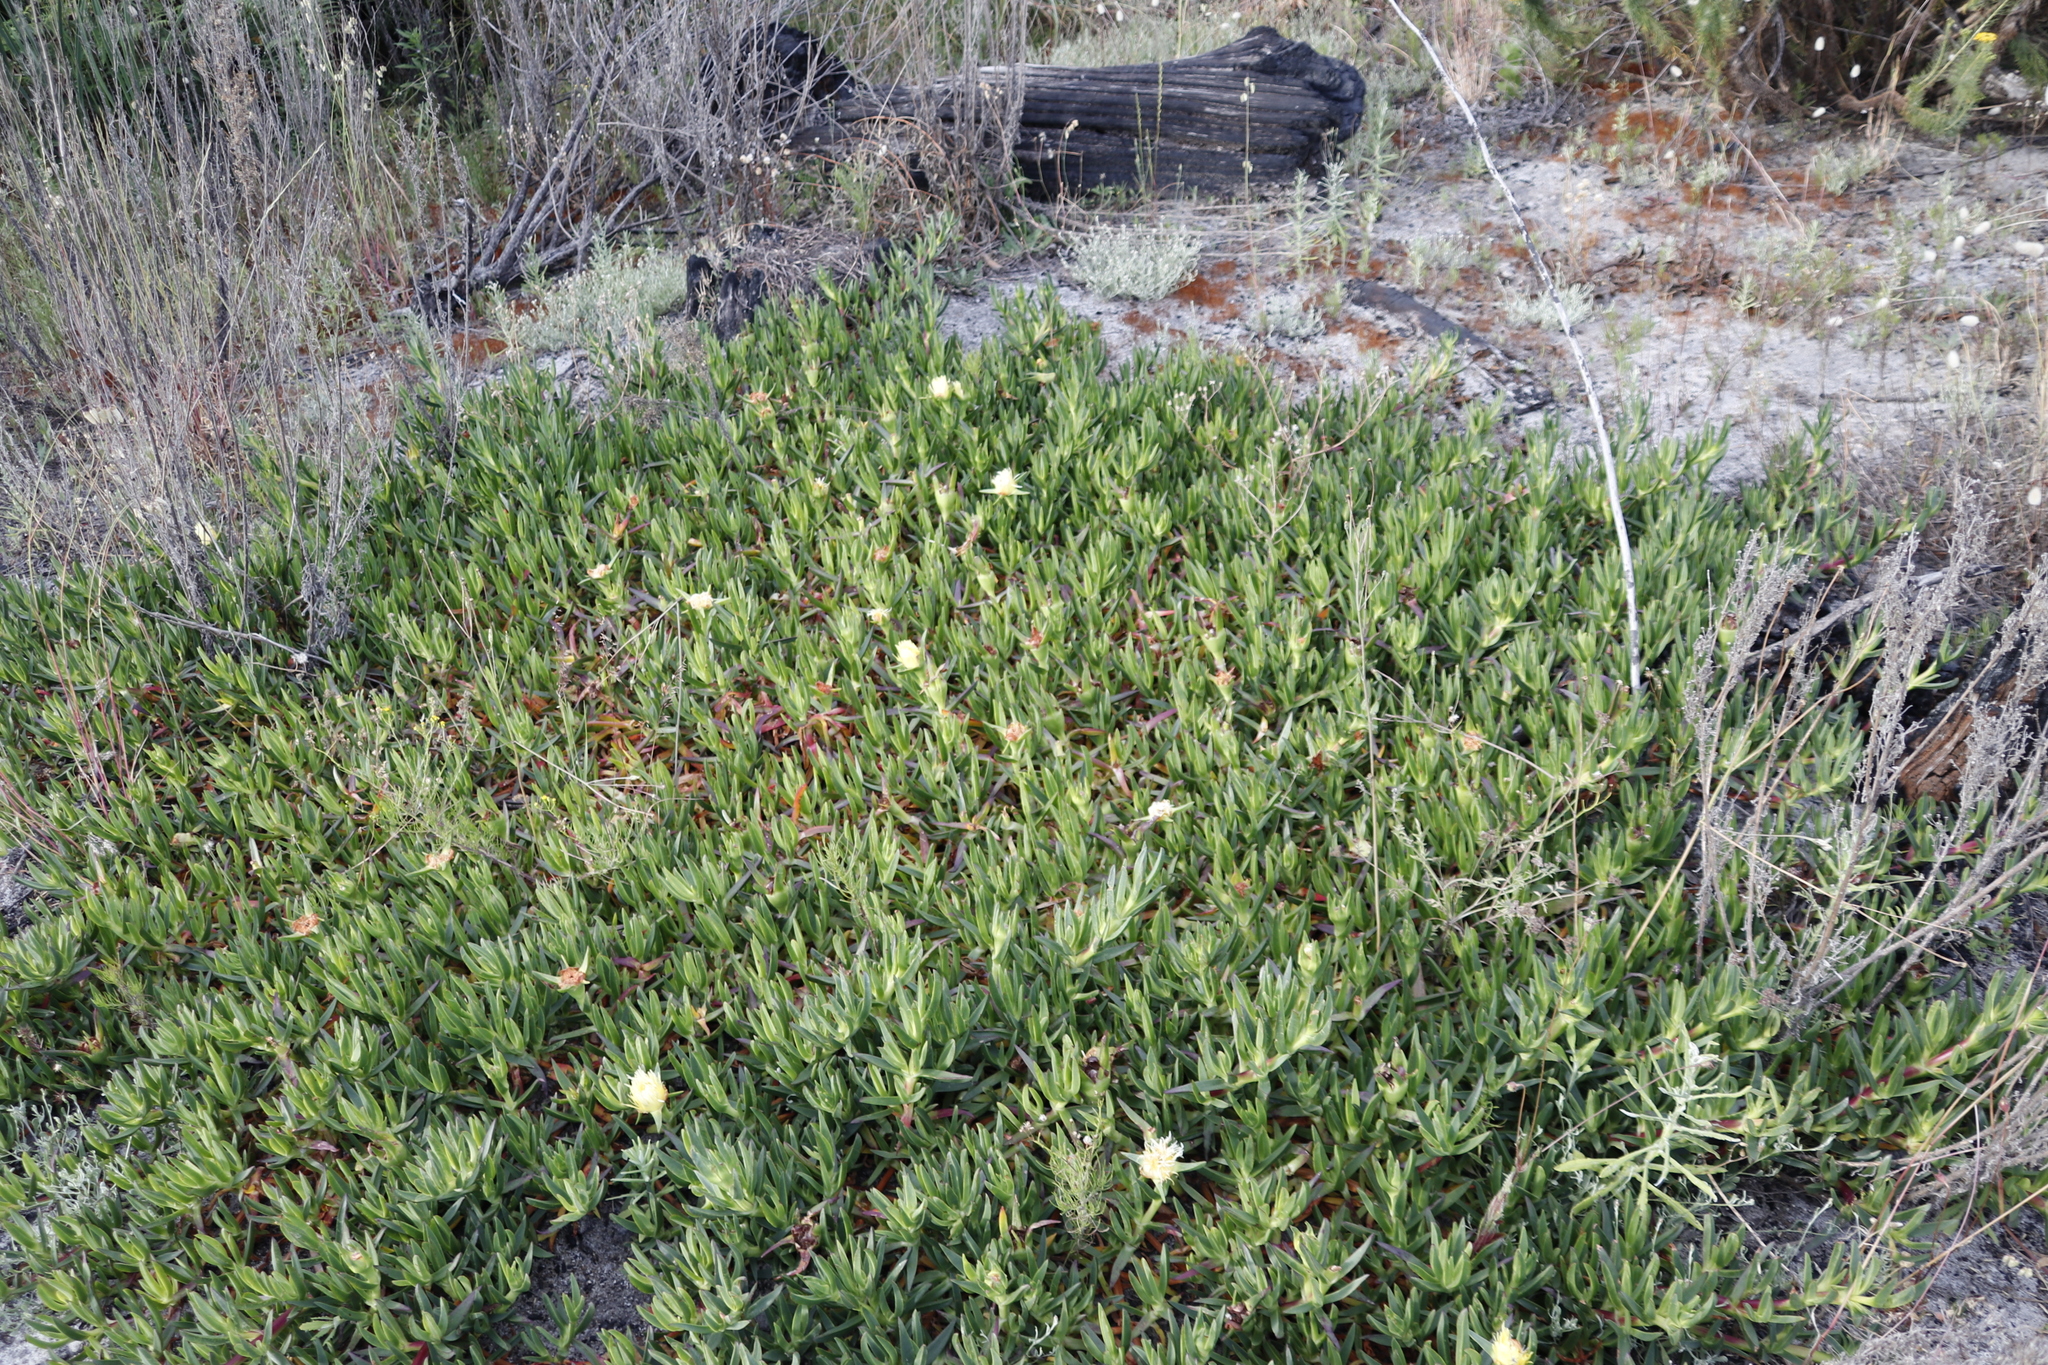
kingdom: Plantae
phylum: Tracheophyta
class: Magnoliopsida
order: Caryophyllales
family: Aizoaceae
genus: Carpobrotus
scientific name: Carpobrotus edulis
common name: Hottentot-fig
